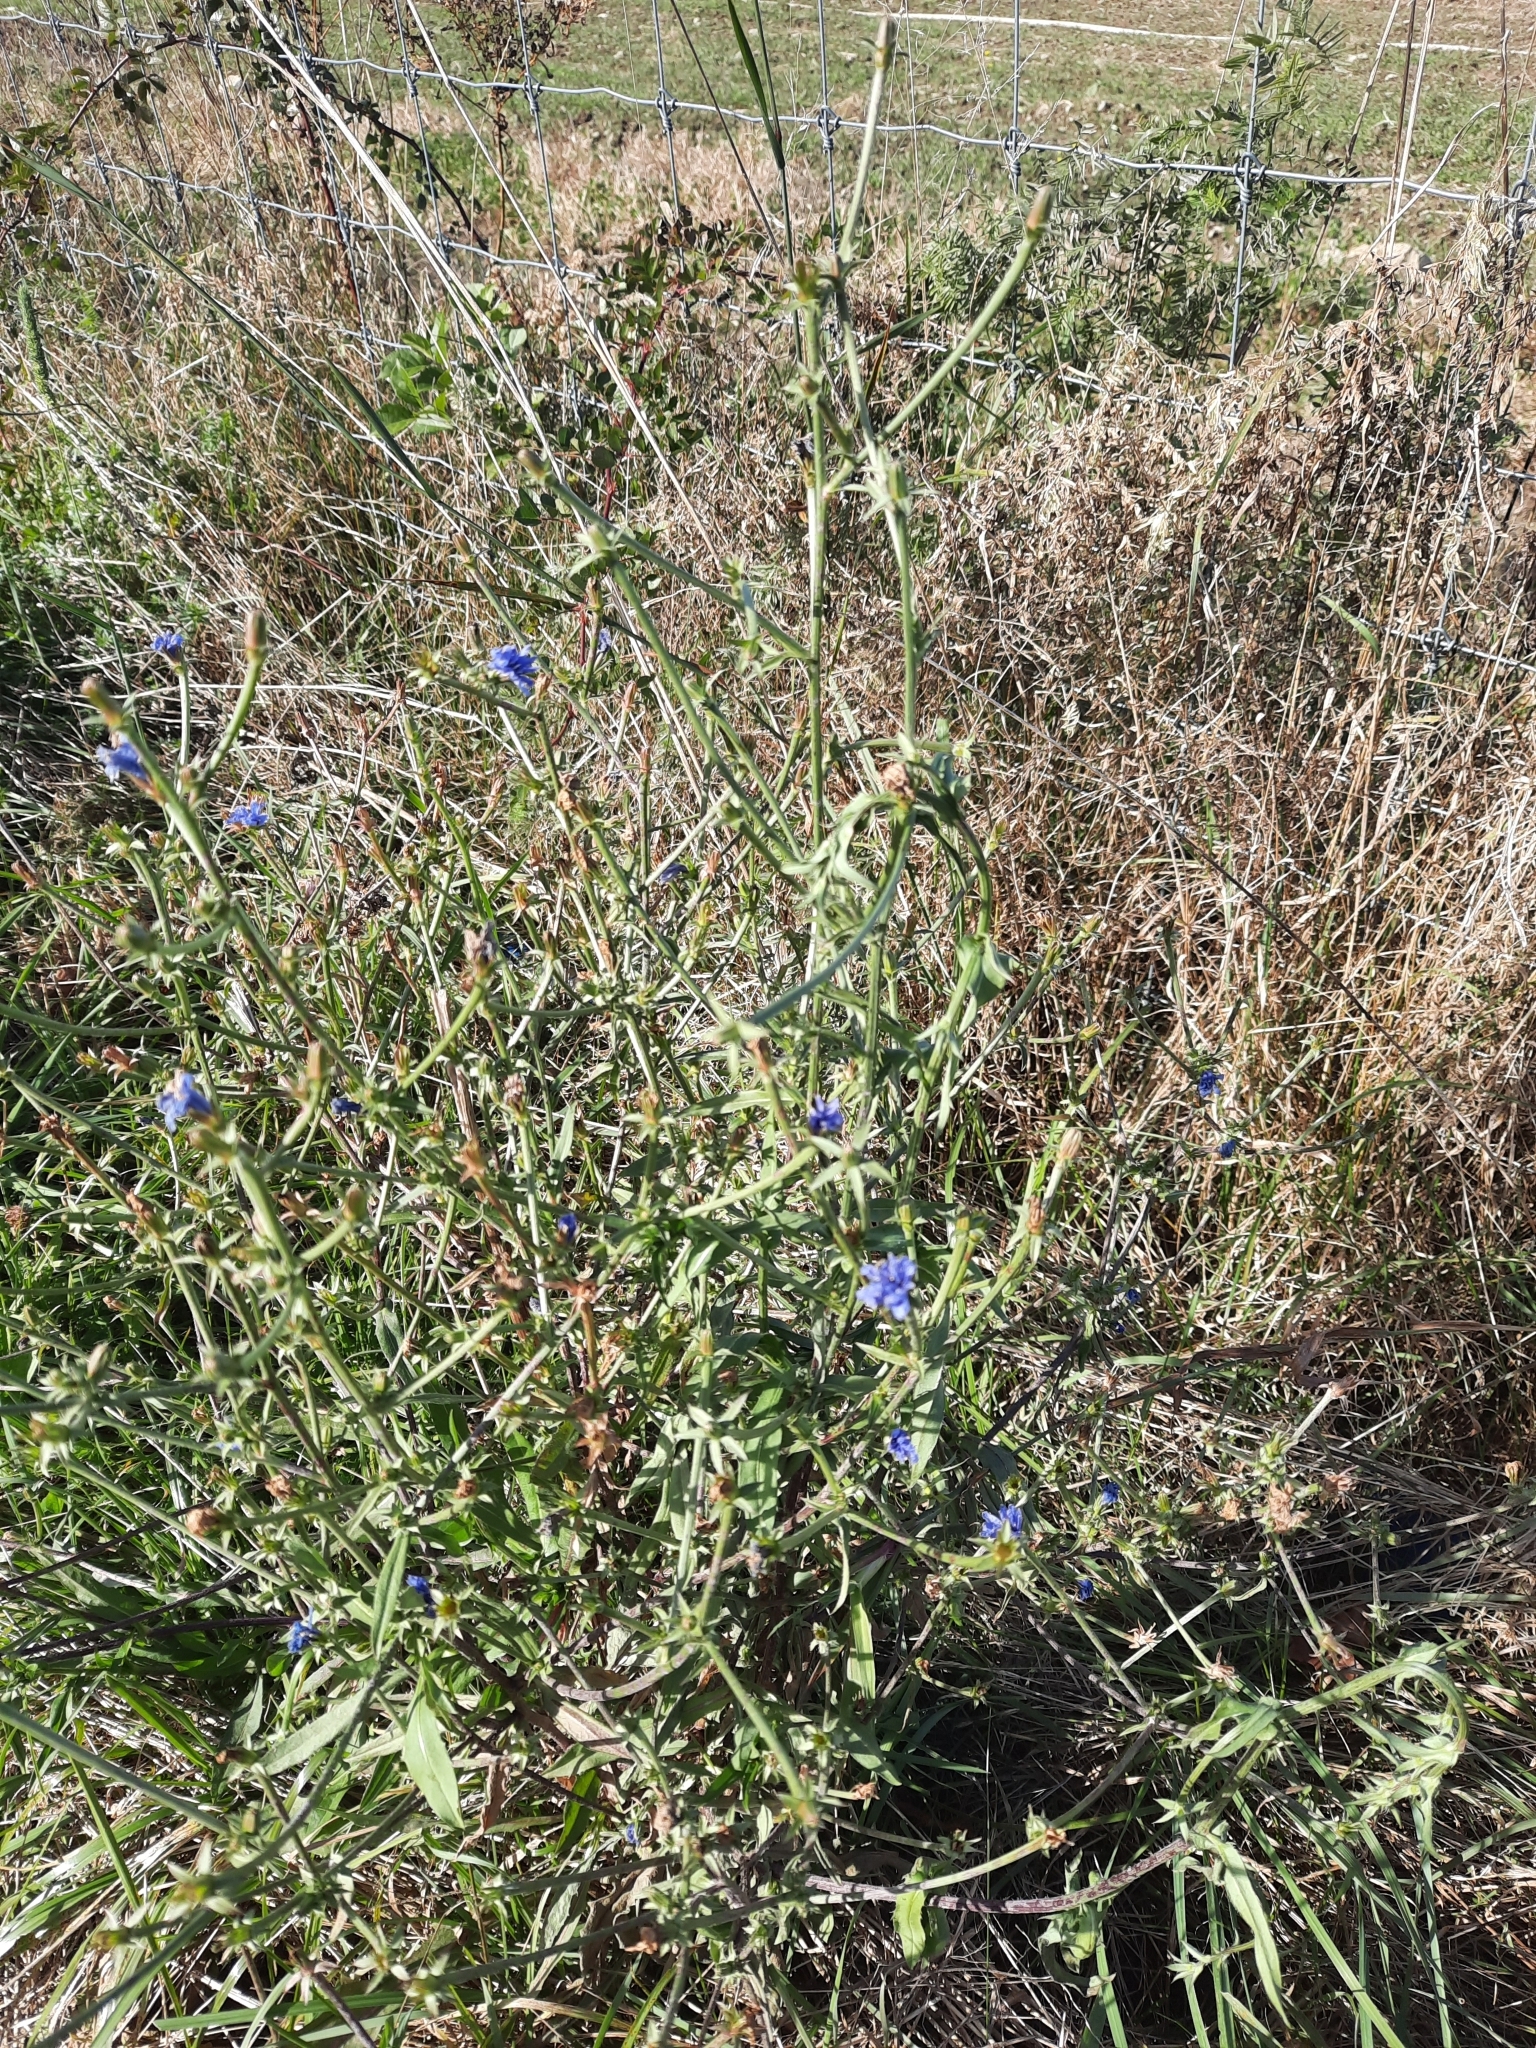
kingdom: Plantae
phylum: Tracheophyta
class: Magnoliopsida
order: Asterales
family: Asteraceae
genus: Cichorium
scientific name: Cichorium intybus
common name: Chicory
